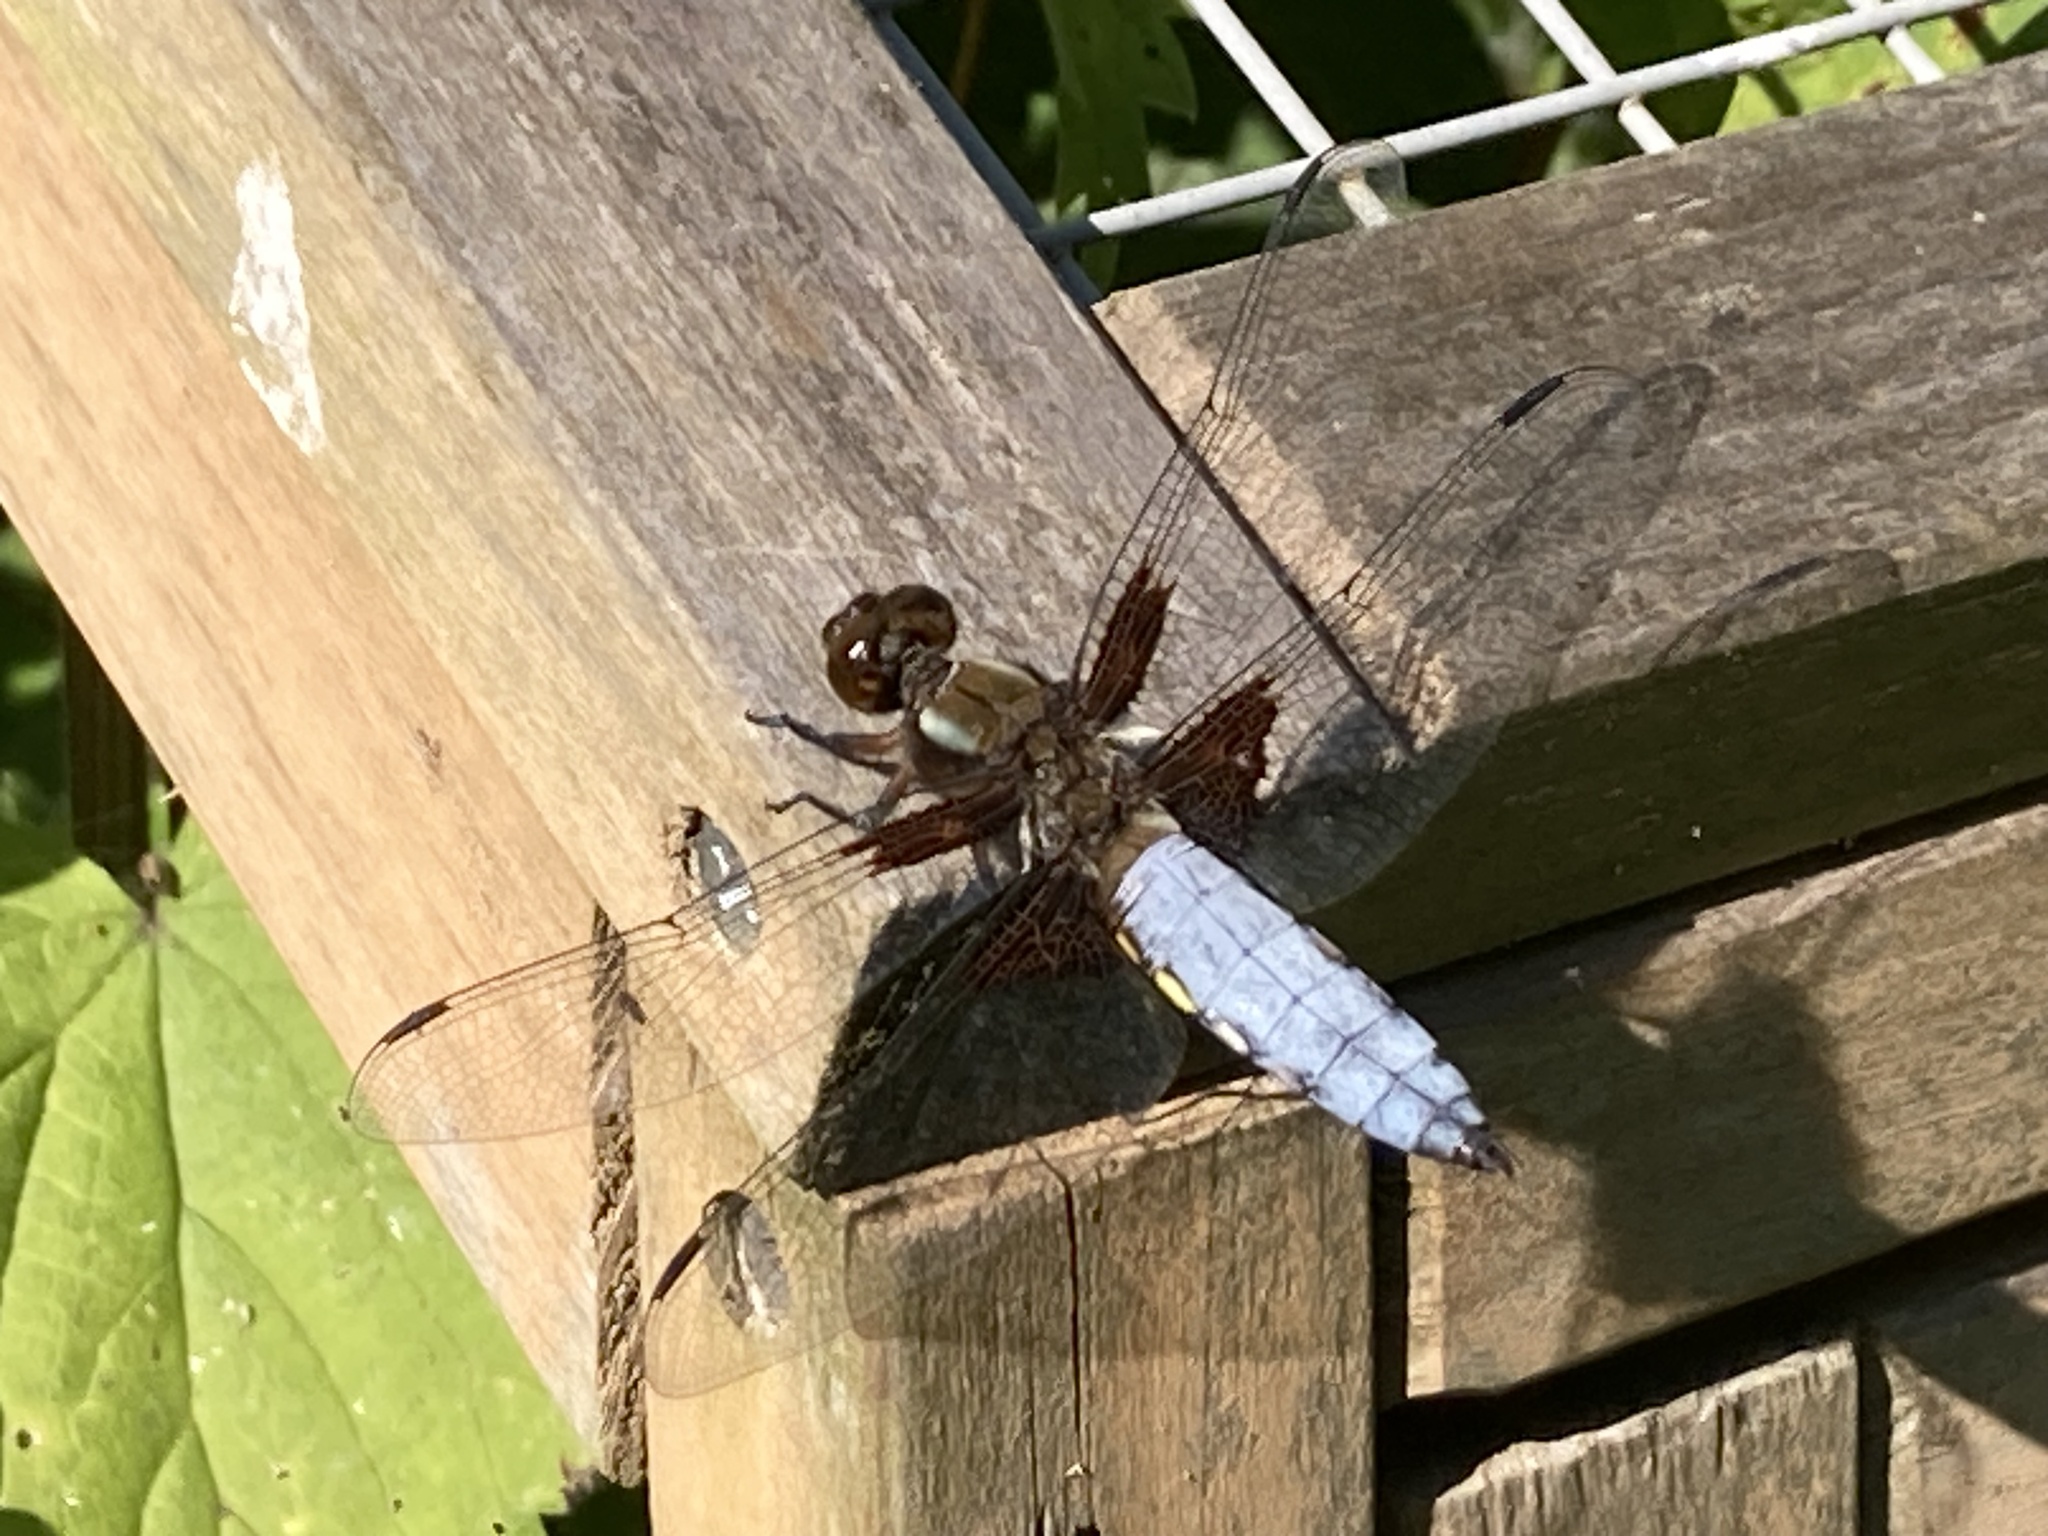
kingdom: Animalia
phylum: Arthropoda
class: Insecta
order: Odonata
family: Libellulidae
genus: Libellula
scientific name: Libellula depressa
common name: Broad-bodied chaser
